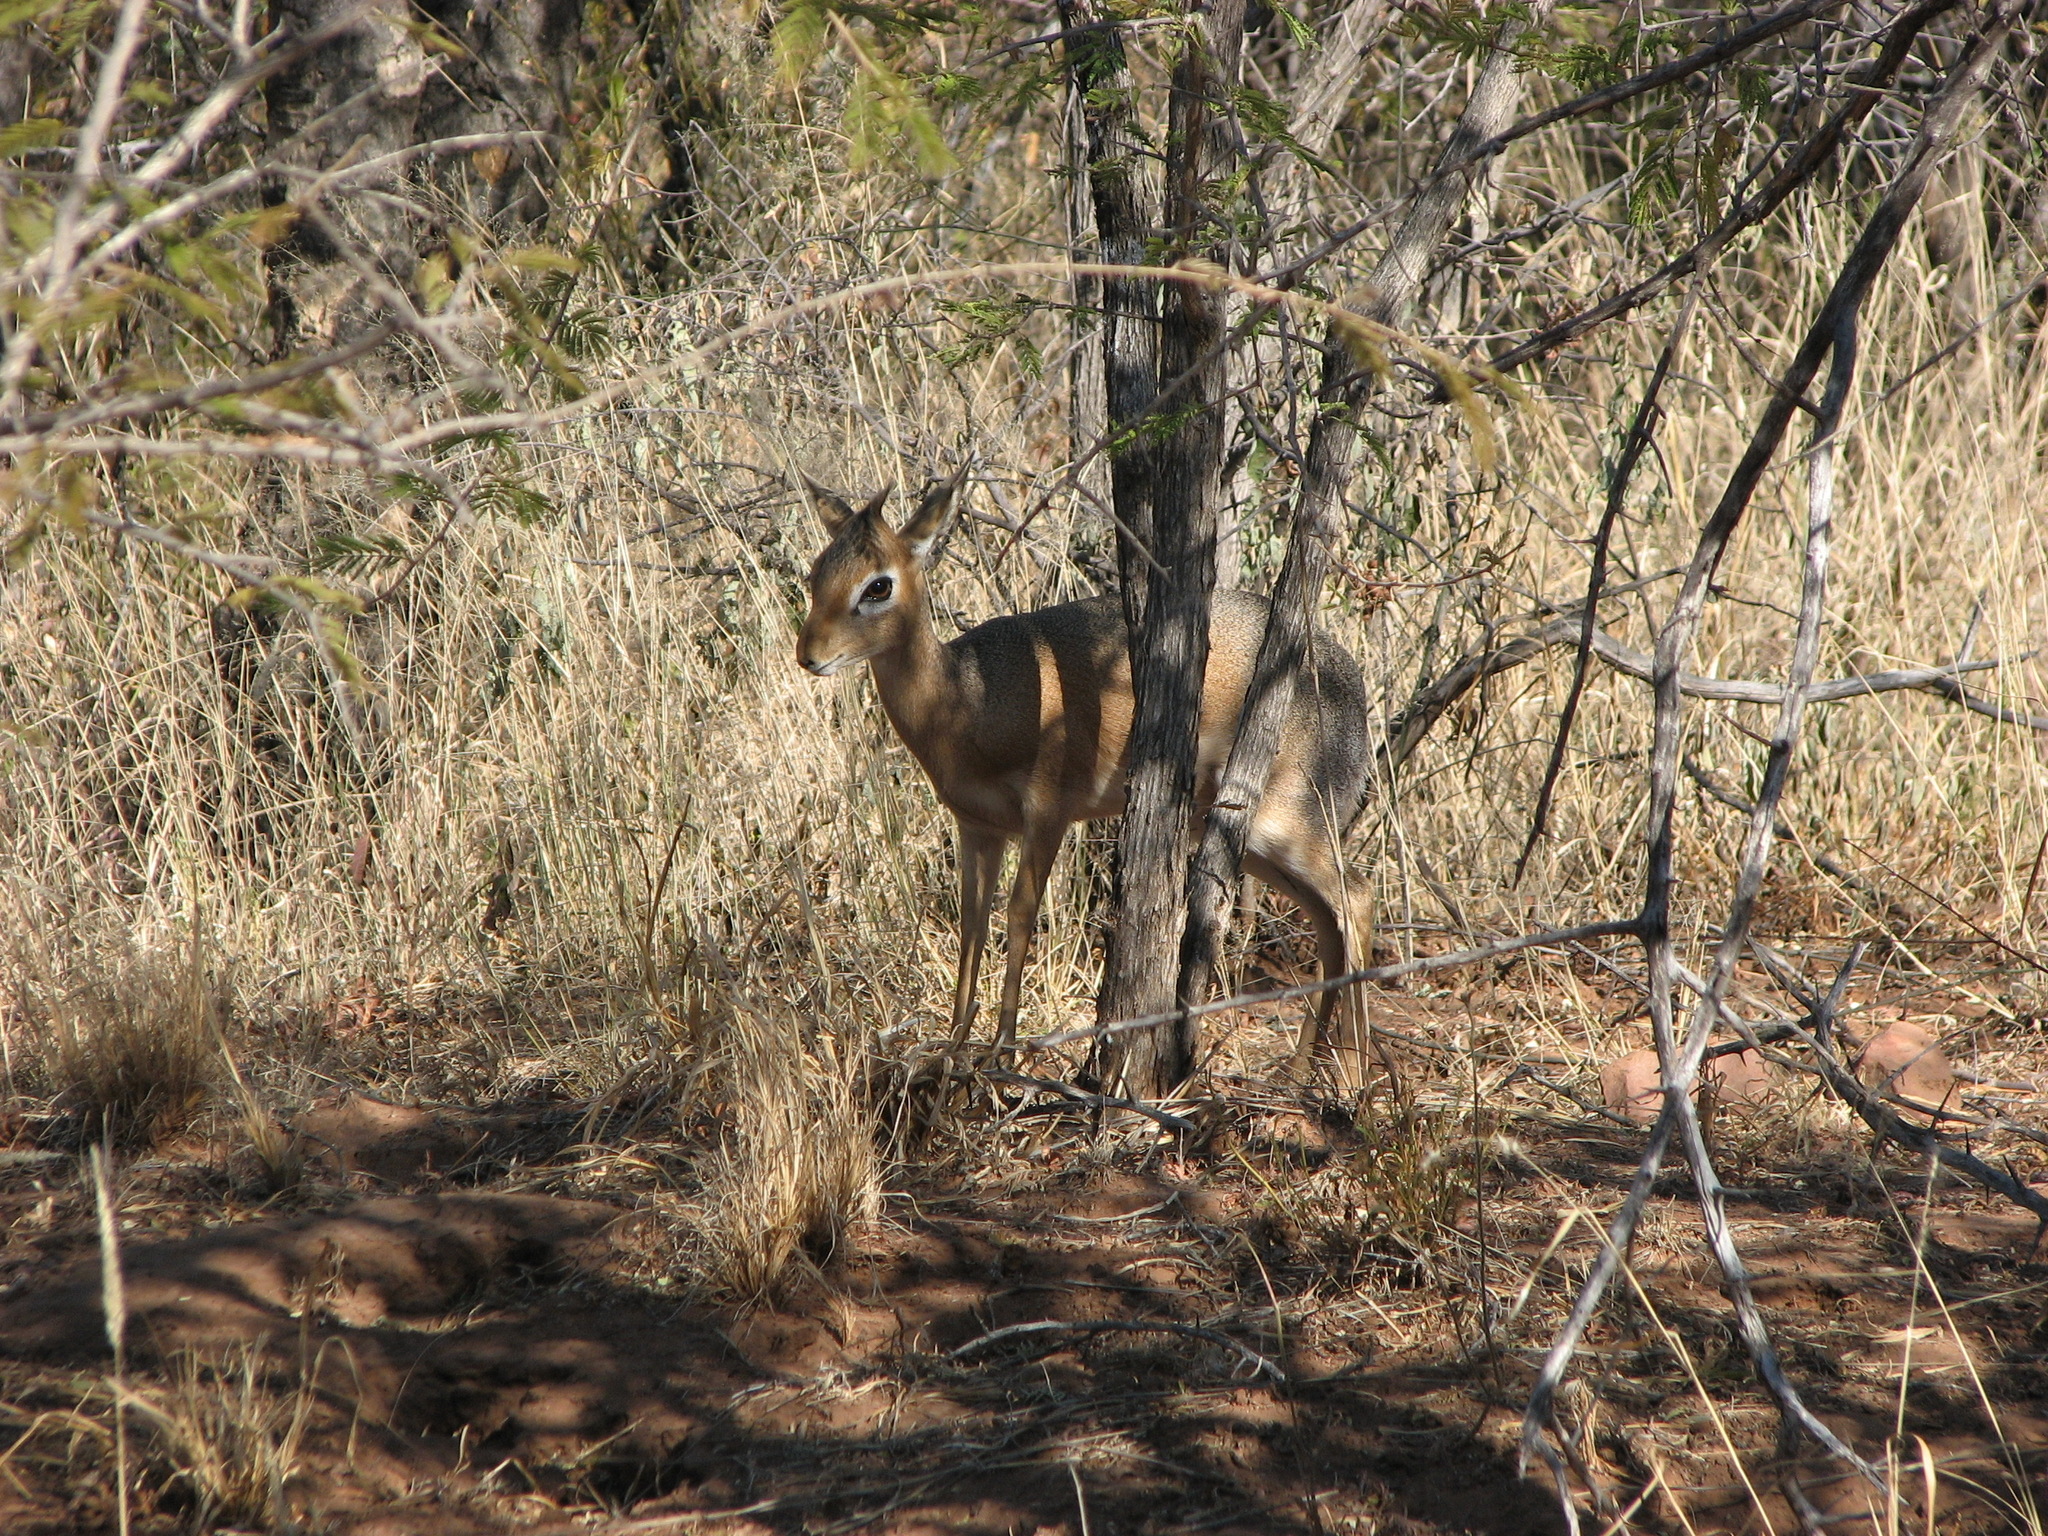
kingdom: Animalia
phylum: Chordata
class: Mammalia
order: Artiodactyla
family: Bovidae
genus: Madoqua
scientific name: Madoqua kirkii
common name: Kirk's dik-dik
